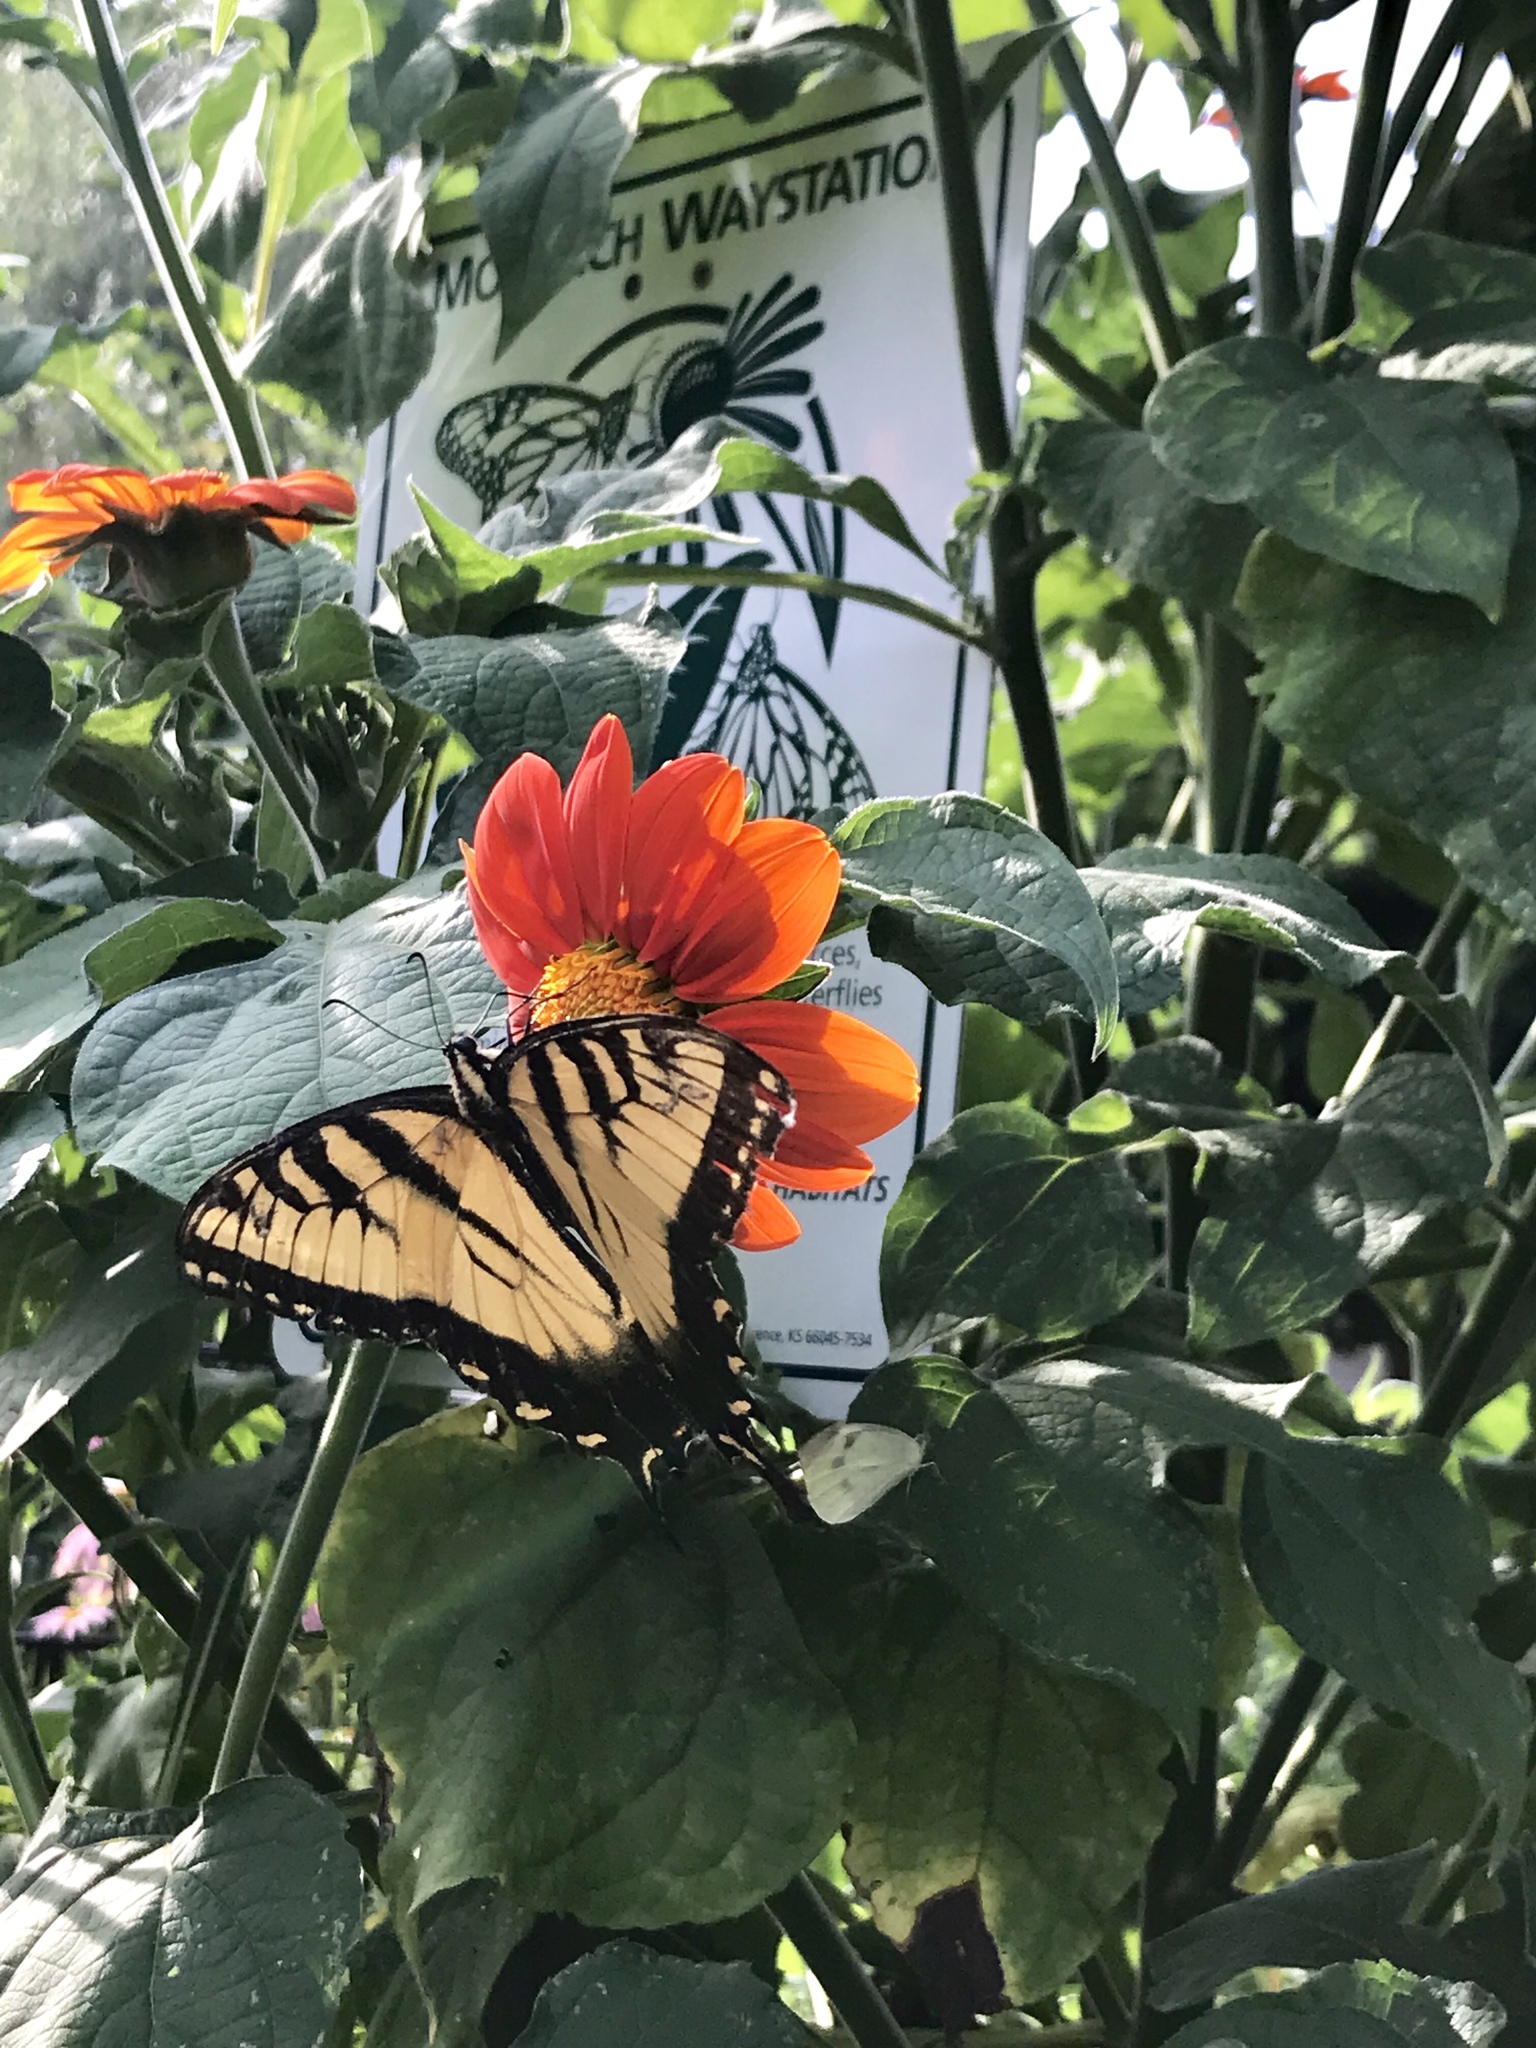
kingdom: Animalia
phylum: Arthropoda
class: Insecta
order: Lepidoptera
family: Papilionidae
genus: Papilio
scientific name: Papilio glaucus
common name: Tiger swallowtail
